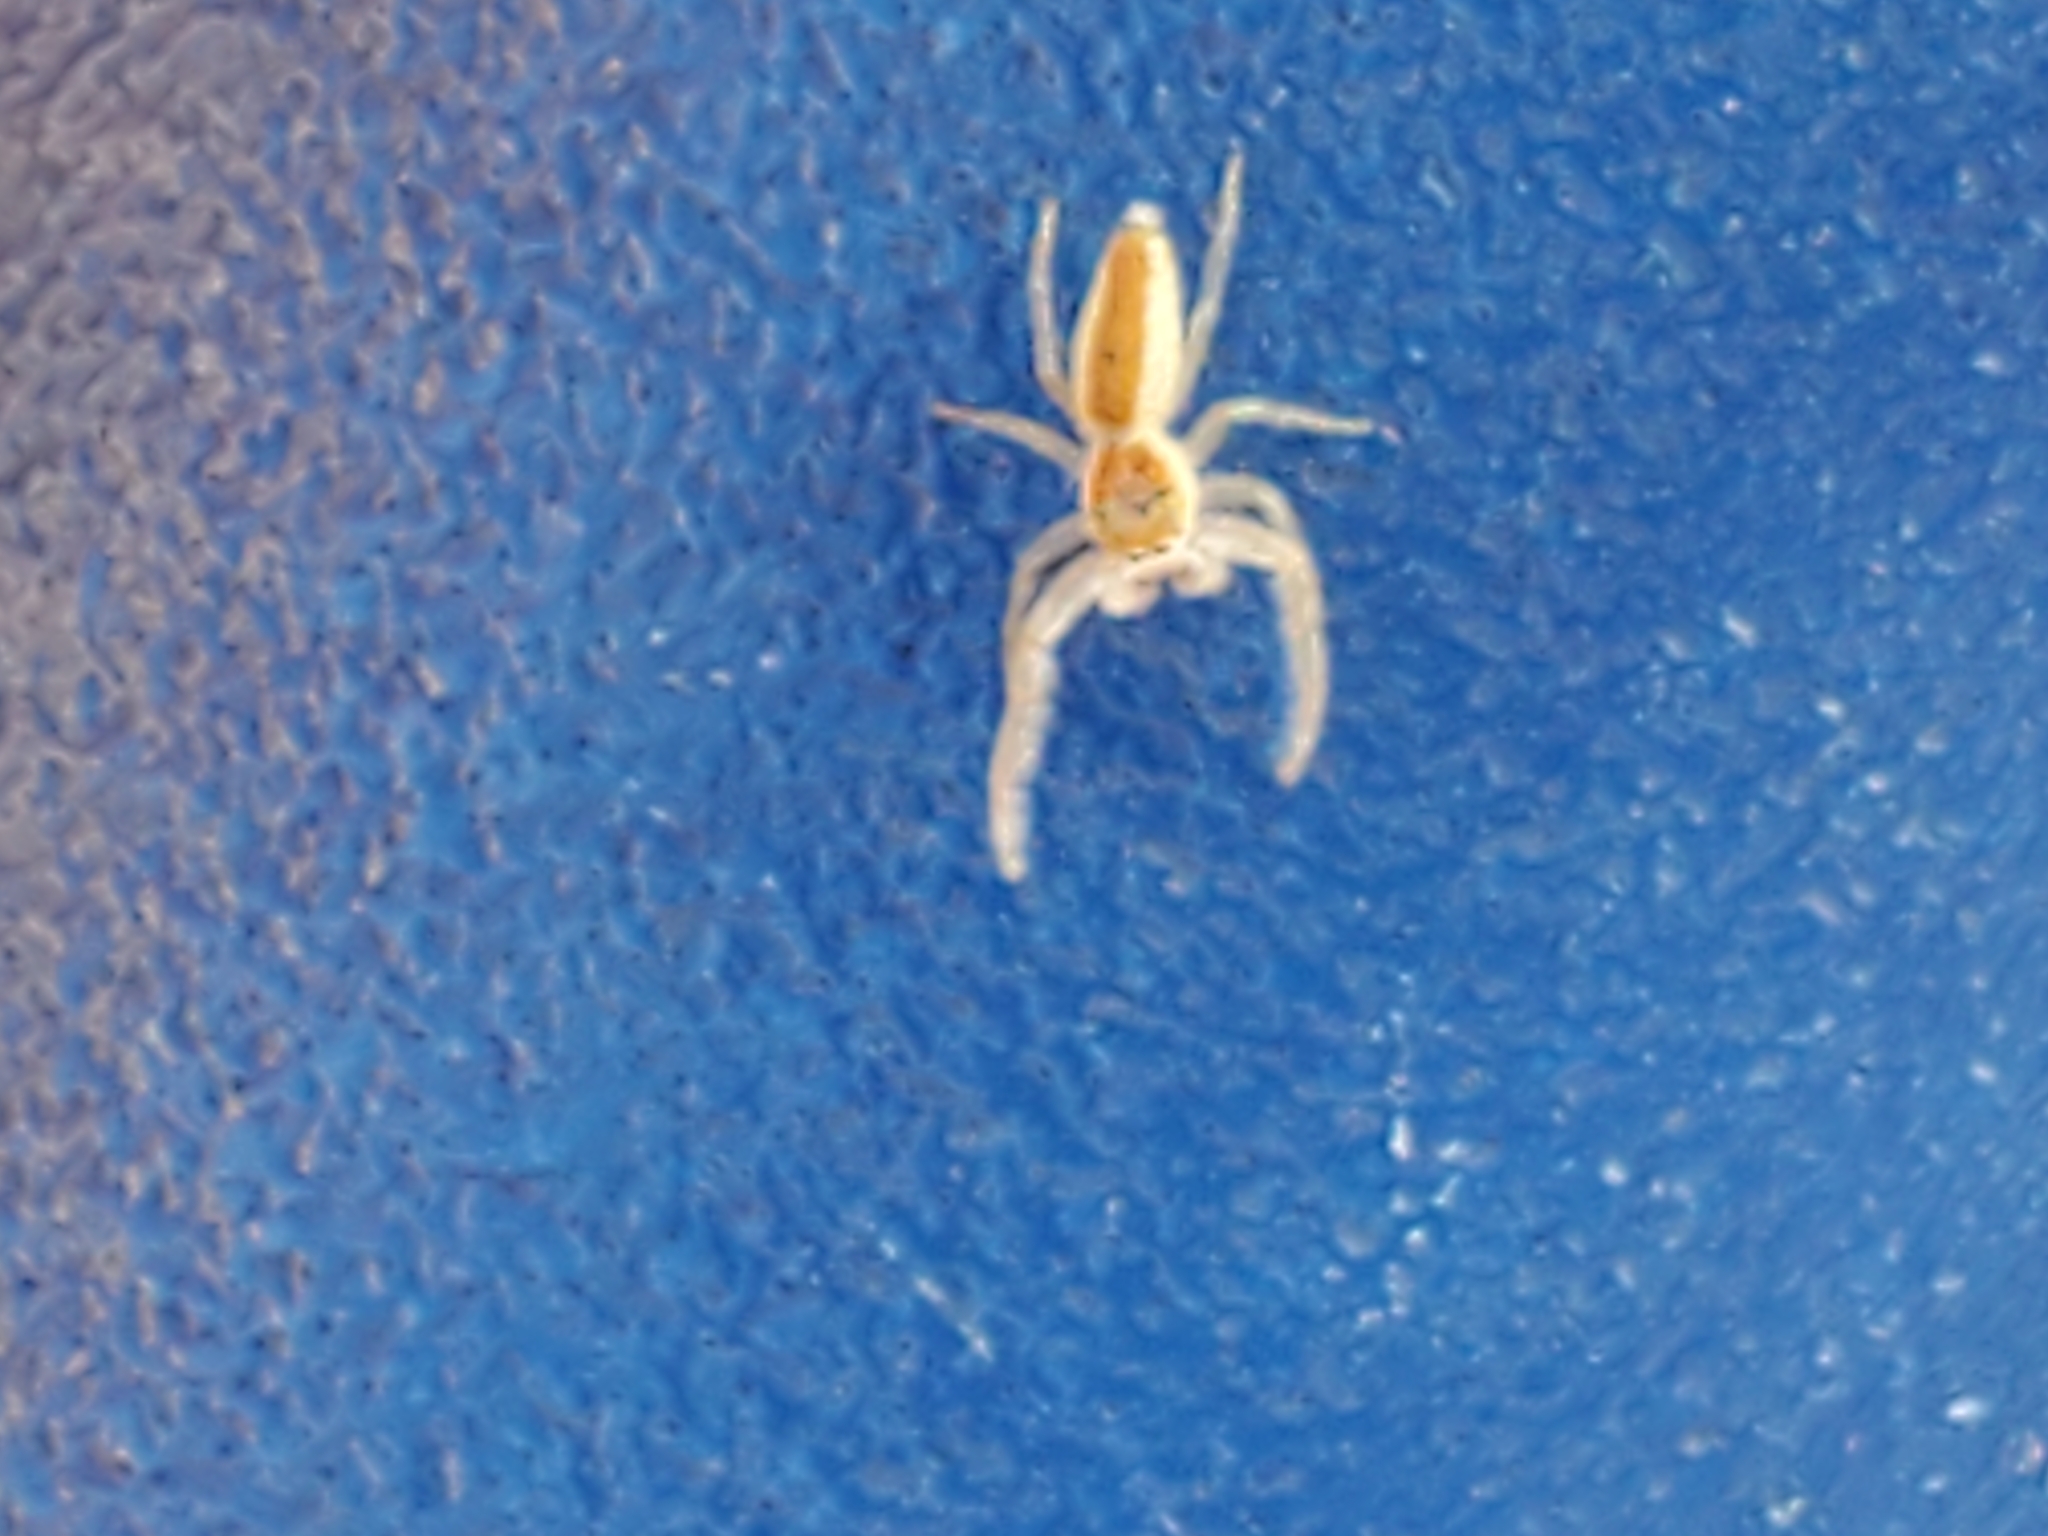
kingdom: Animalia
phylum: Arthropoda
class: Arachnida
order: Araneae
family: Salticidae
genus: Hentzia
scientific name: Hentzia mitrata
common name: White-jawed jumping spider
